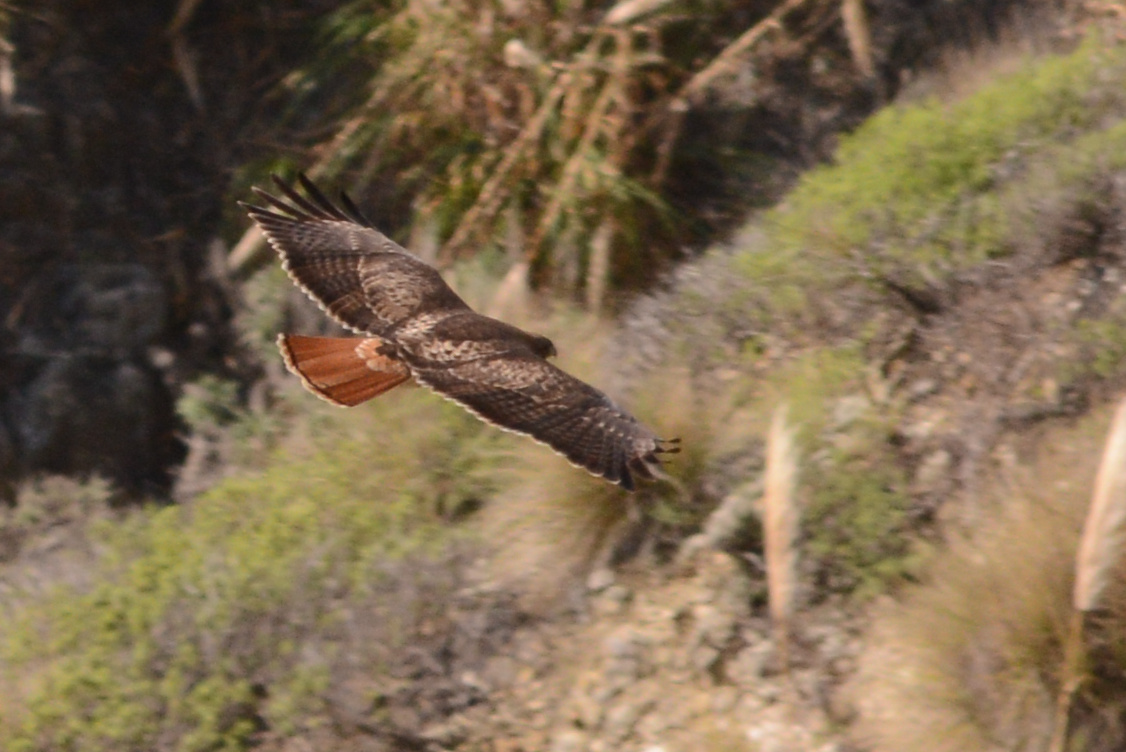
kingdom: Animalia
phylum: Chordata
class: Aves
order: Accipitriformes
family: Accipitridae
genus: Buteo
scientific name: Buteo jamaicensis
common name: Red-tailed hawk
